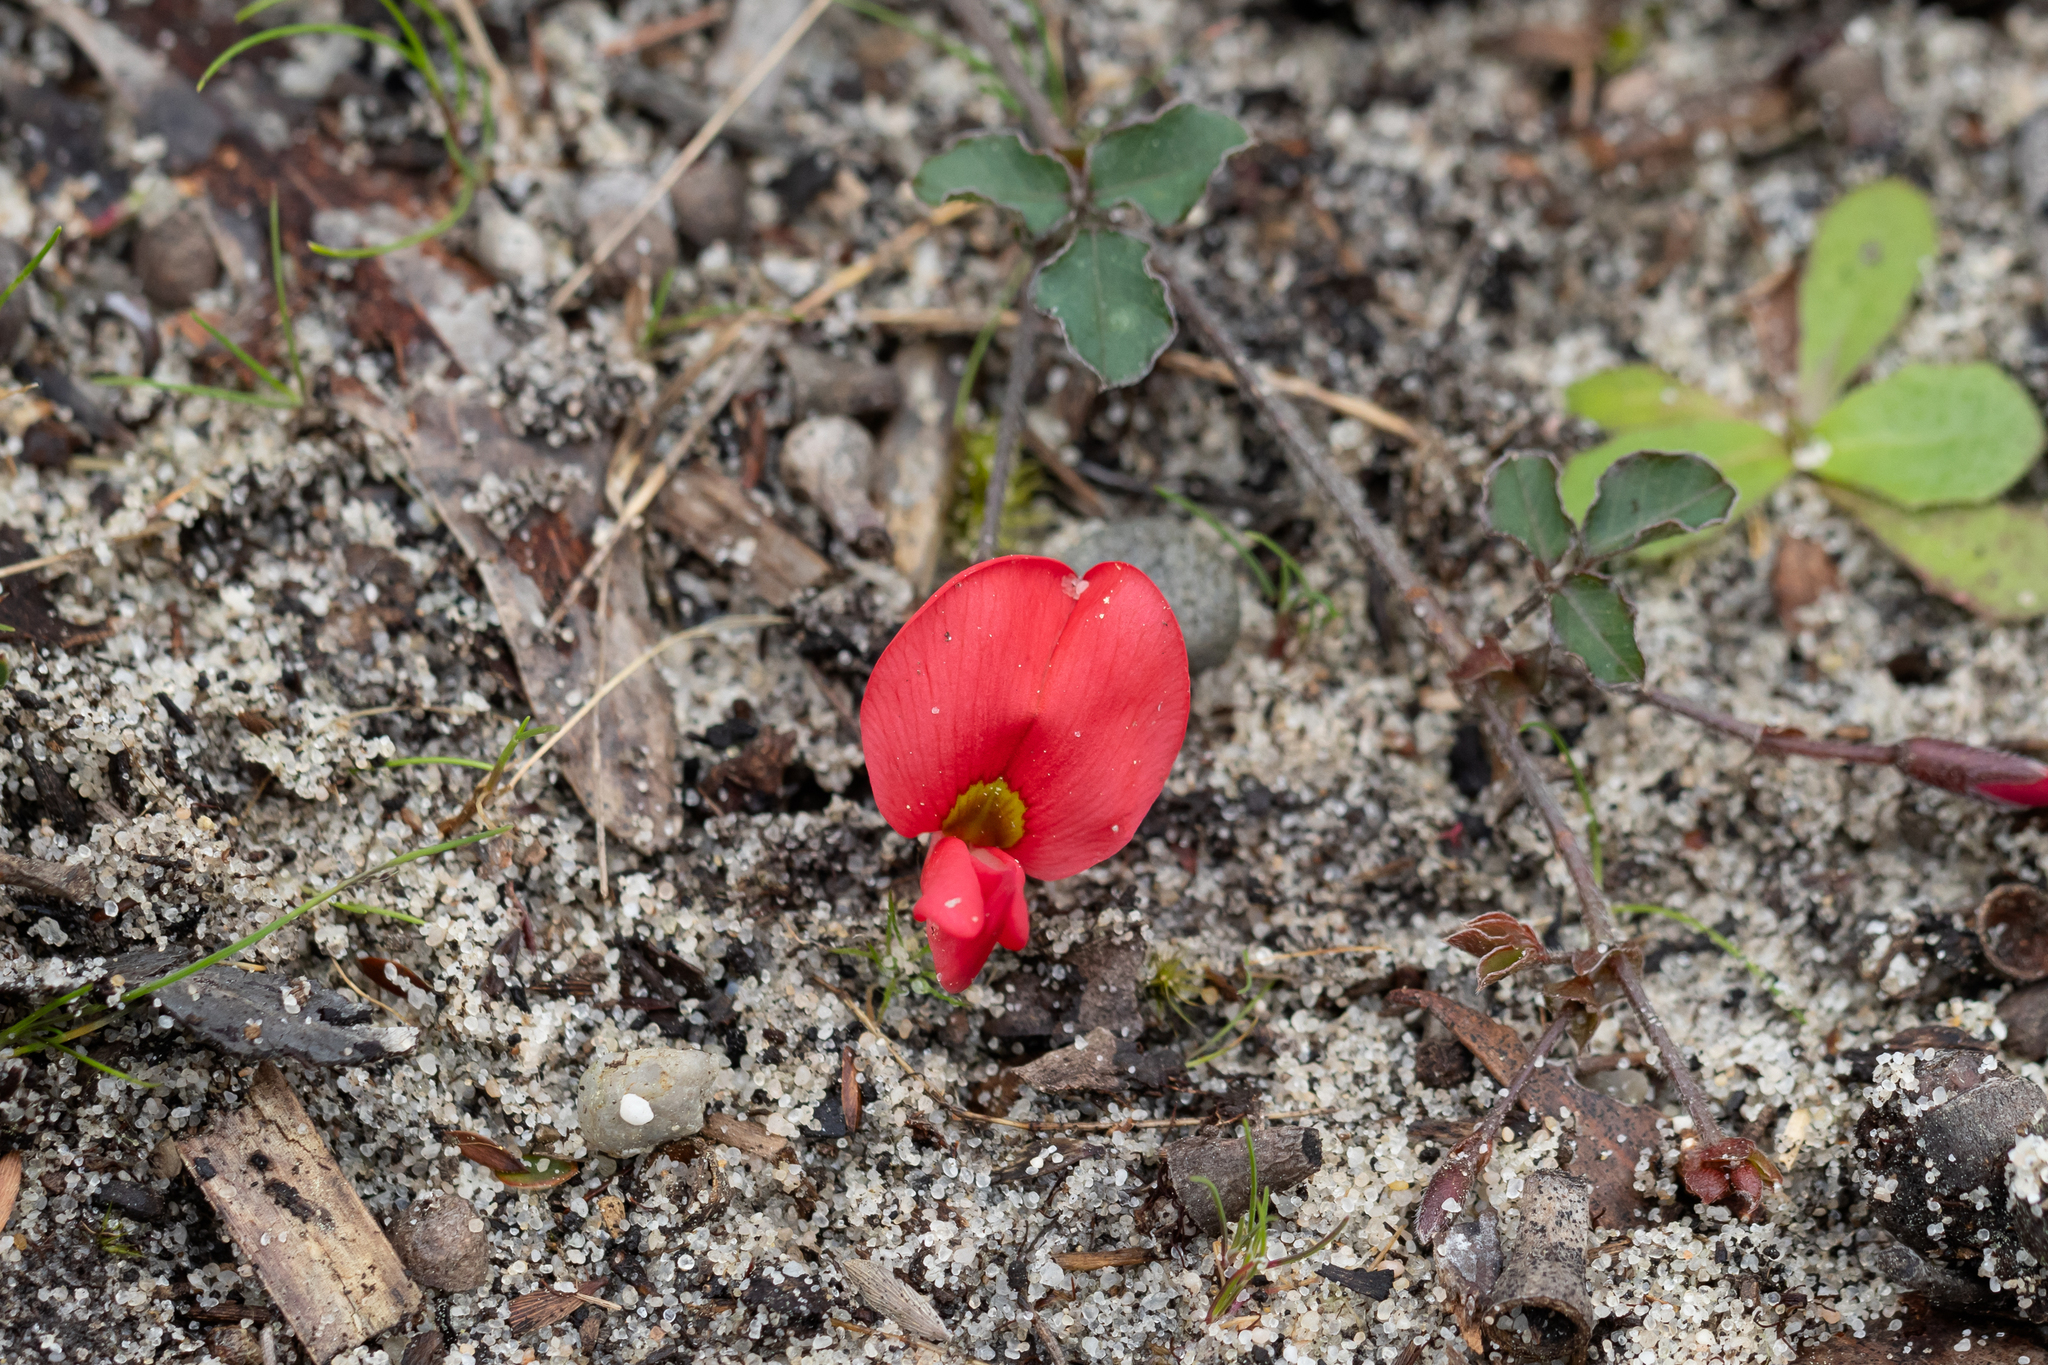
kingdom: Plantae
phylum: Tracheophyta
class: Magnoliopsida
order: Fabales
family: Fabaceae
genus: Kennedia
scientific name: Kennedia prostrata
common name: Running-postman
